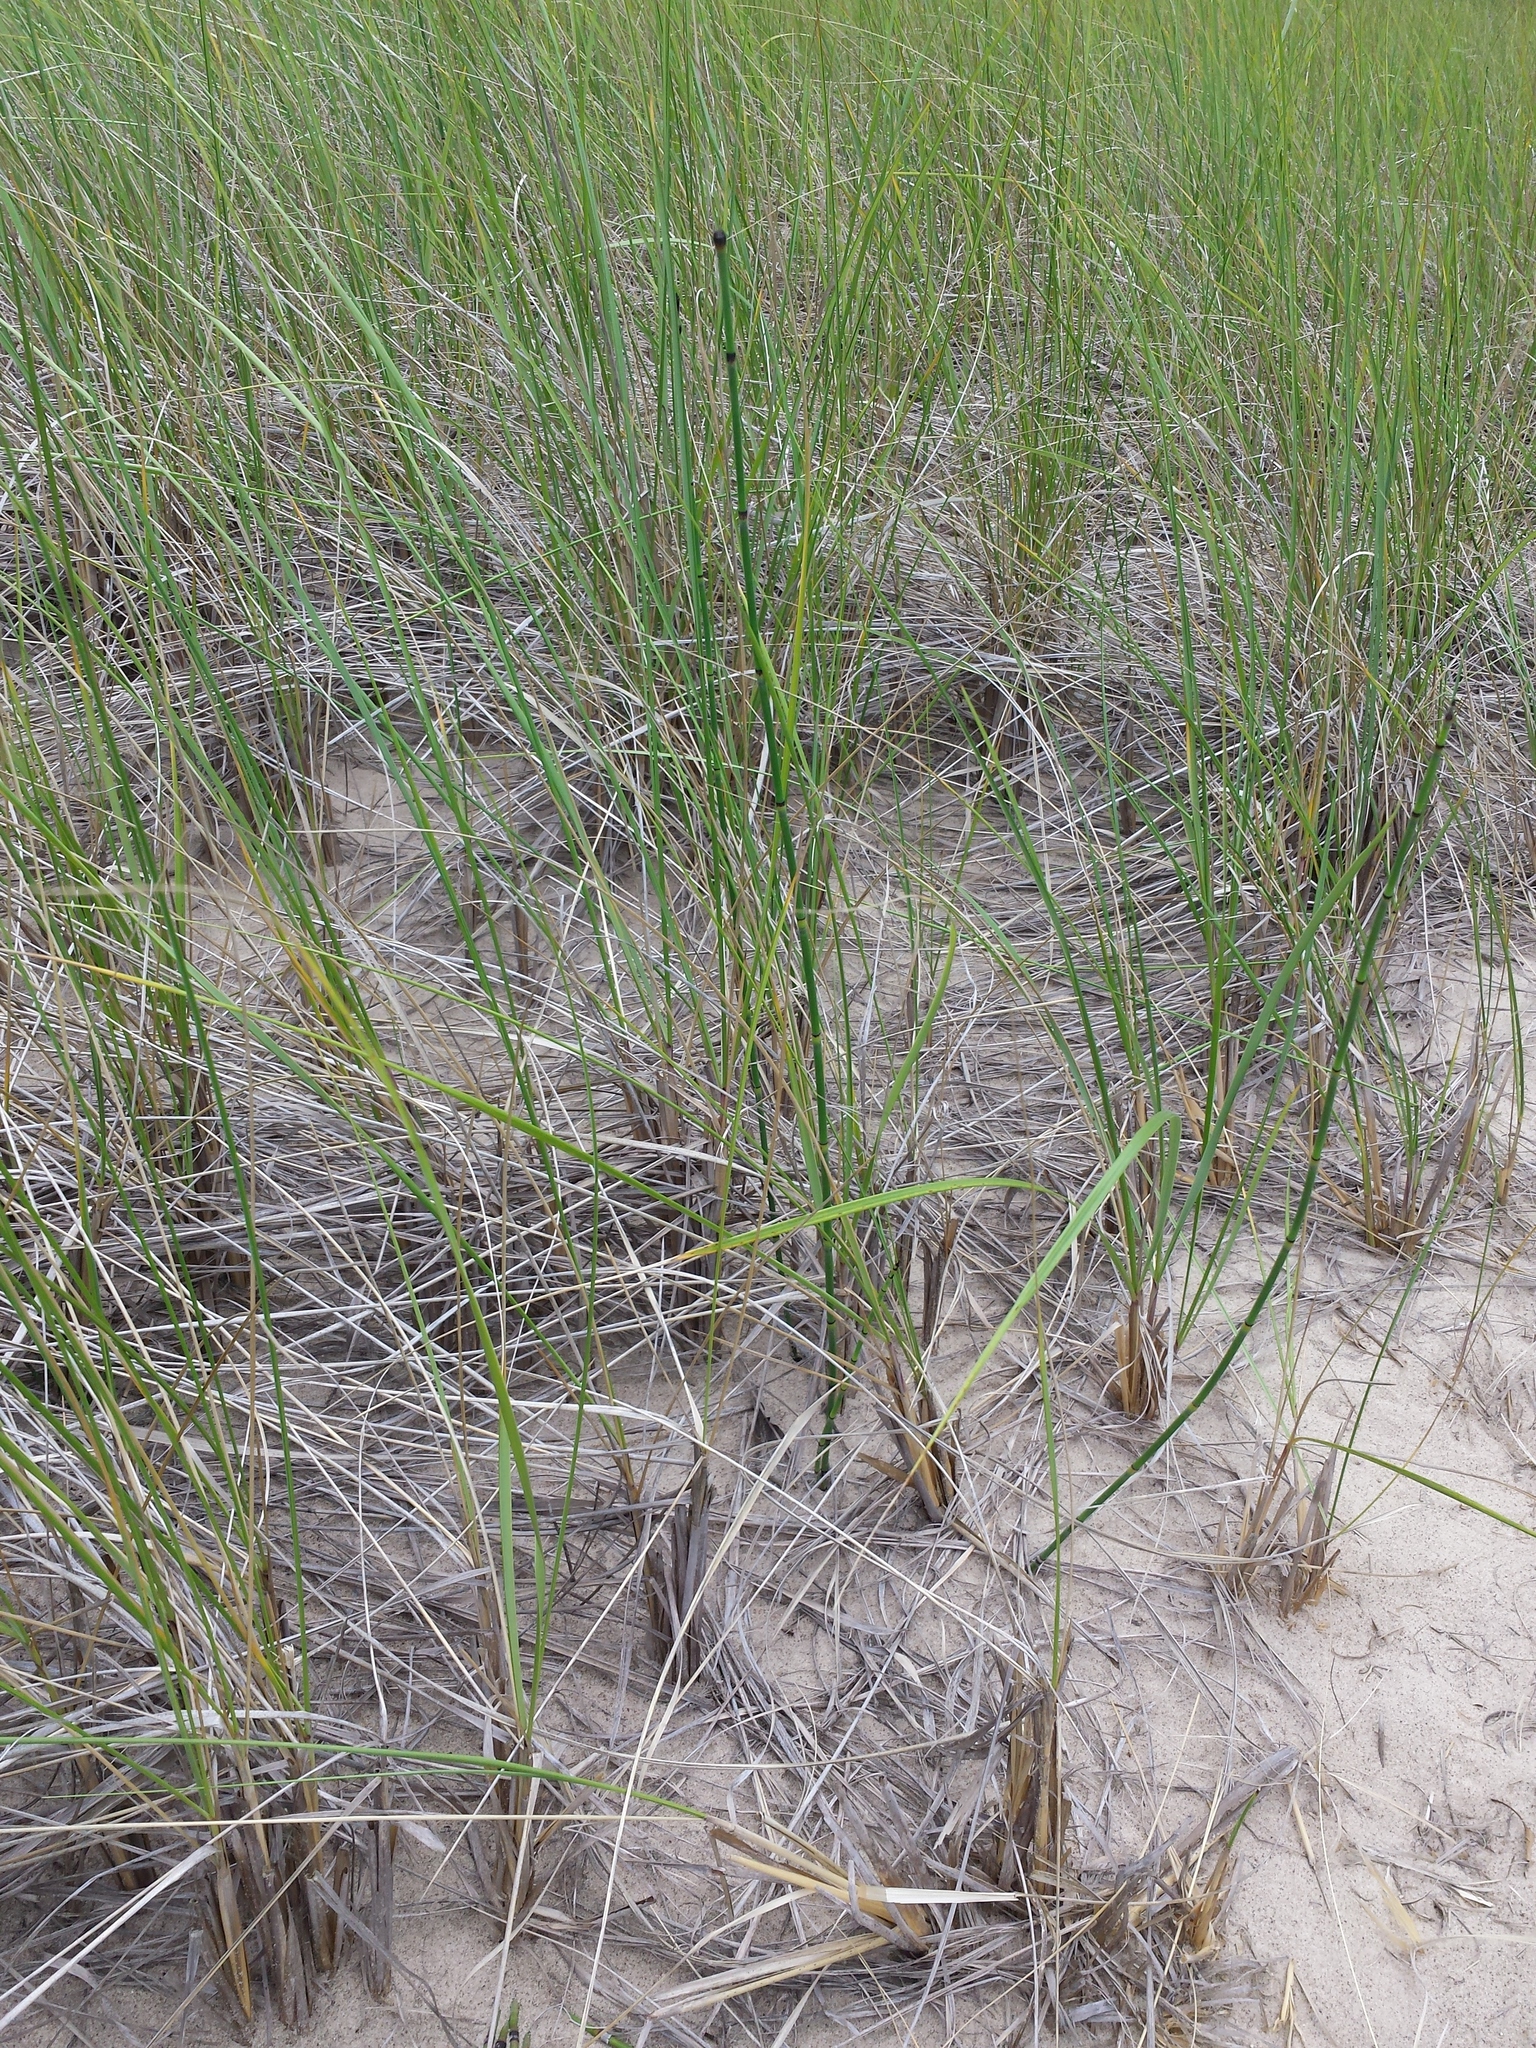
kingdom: Plantae
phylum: Tracheophyta
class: Liliopsida
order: Poales
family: Poaceae
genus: Calamagrostis
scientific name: Calamagrostis breviligulata
